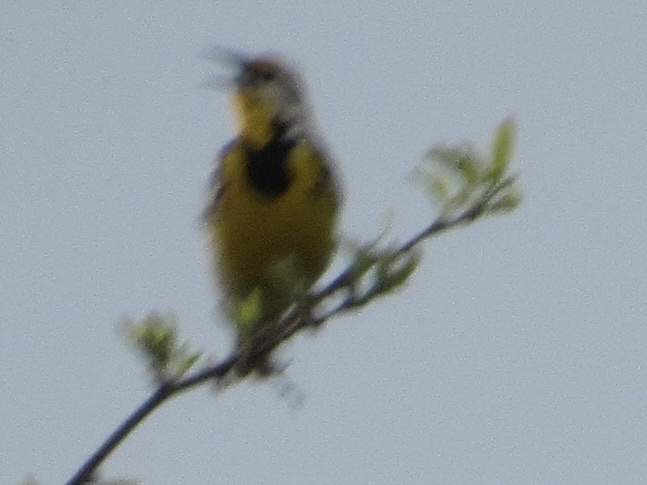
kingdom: Animalia
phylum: Chordata
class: Aves
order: Passeriformes
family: Icteridae
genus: Sturnella
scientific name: Sturnella magna
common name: Eastern meadowlark
